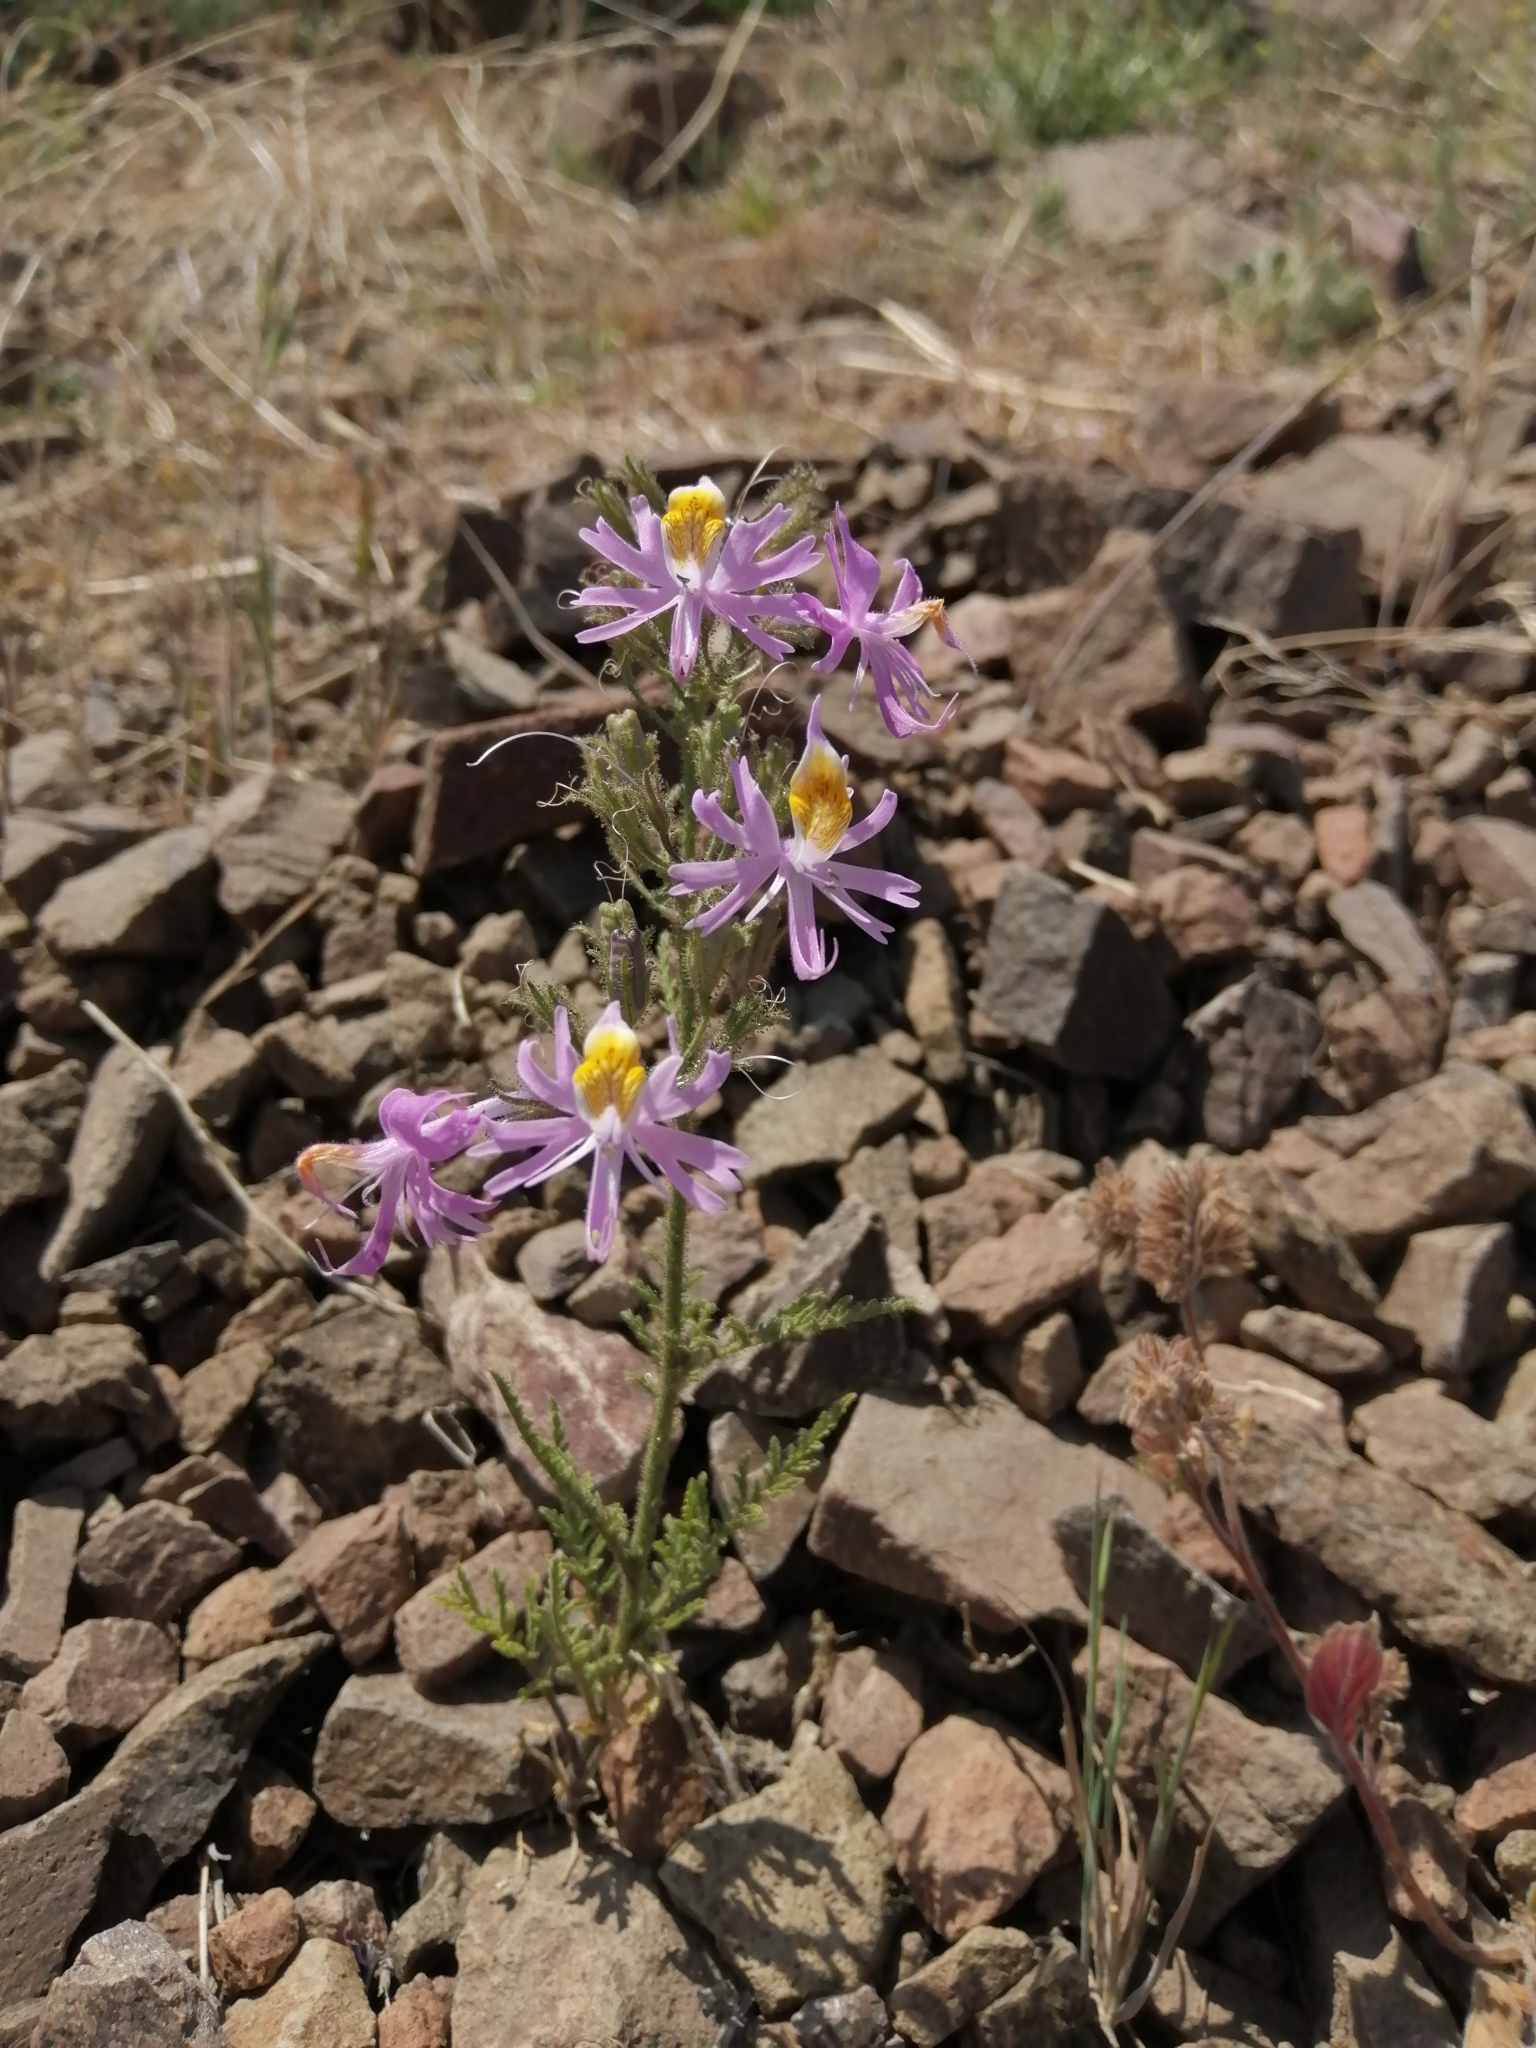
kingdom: Plantae
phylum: Tracheophyta
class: Magnoliopsida
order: Solanales
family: Solanaceae
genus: Schizanthus
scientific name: Schizanthus hookeri
